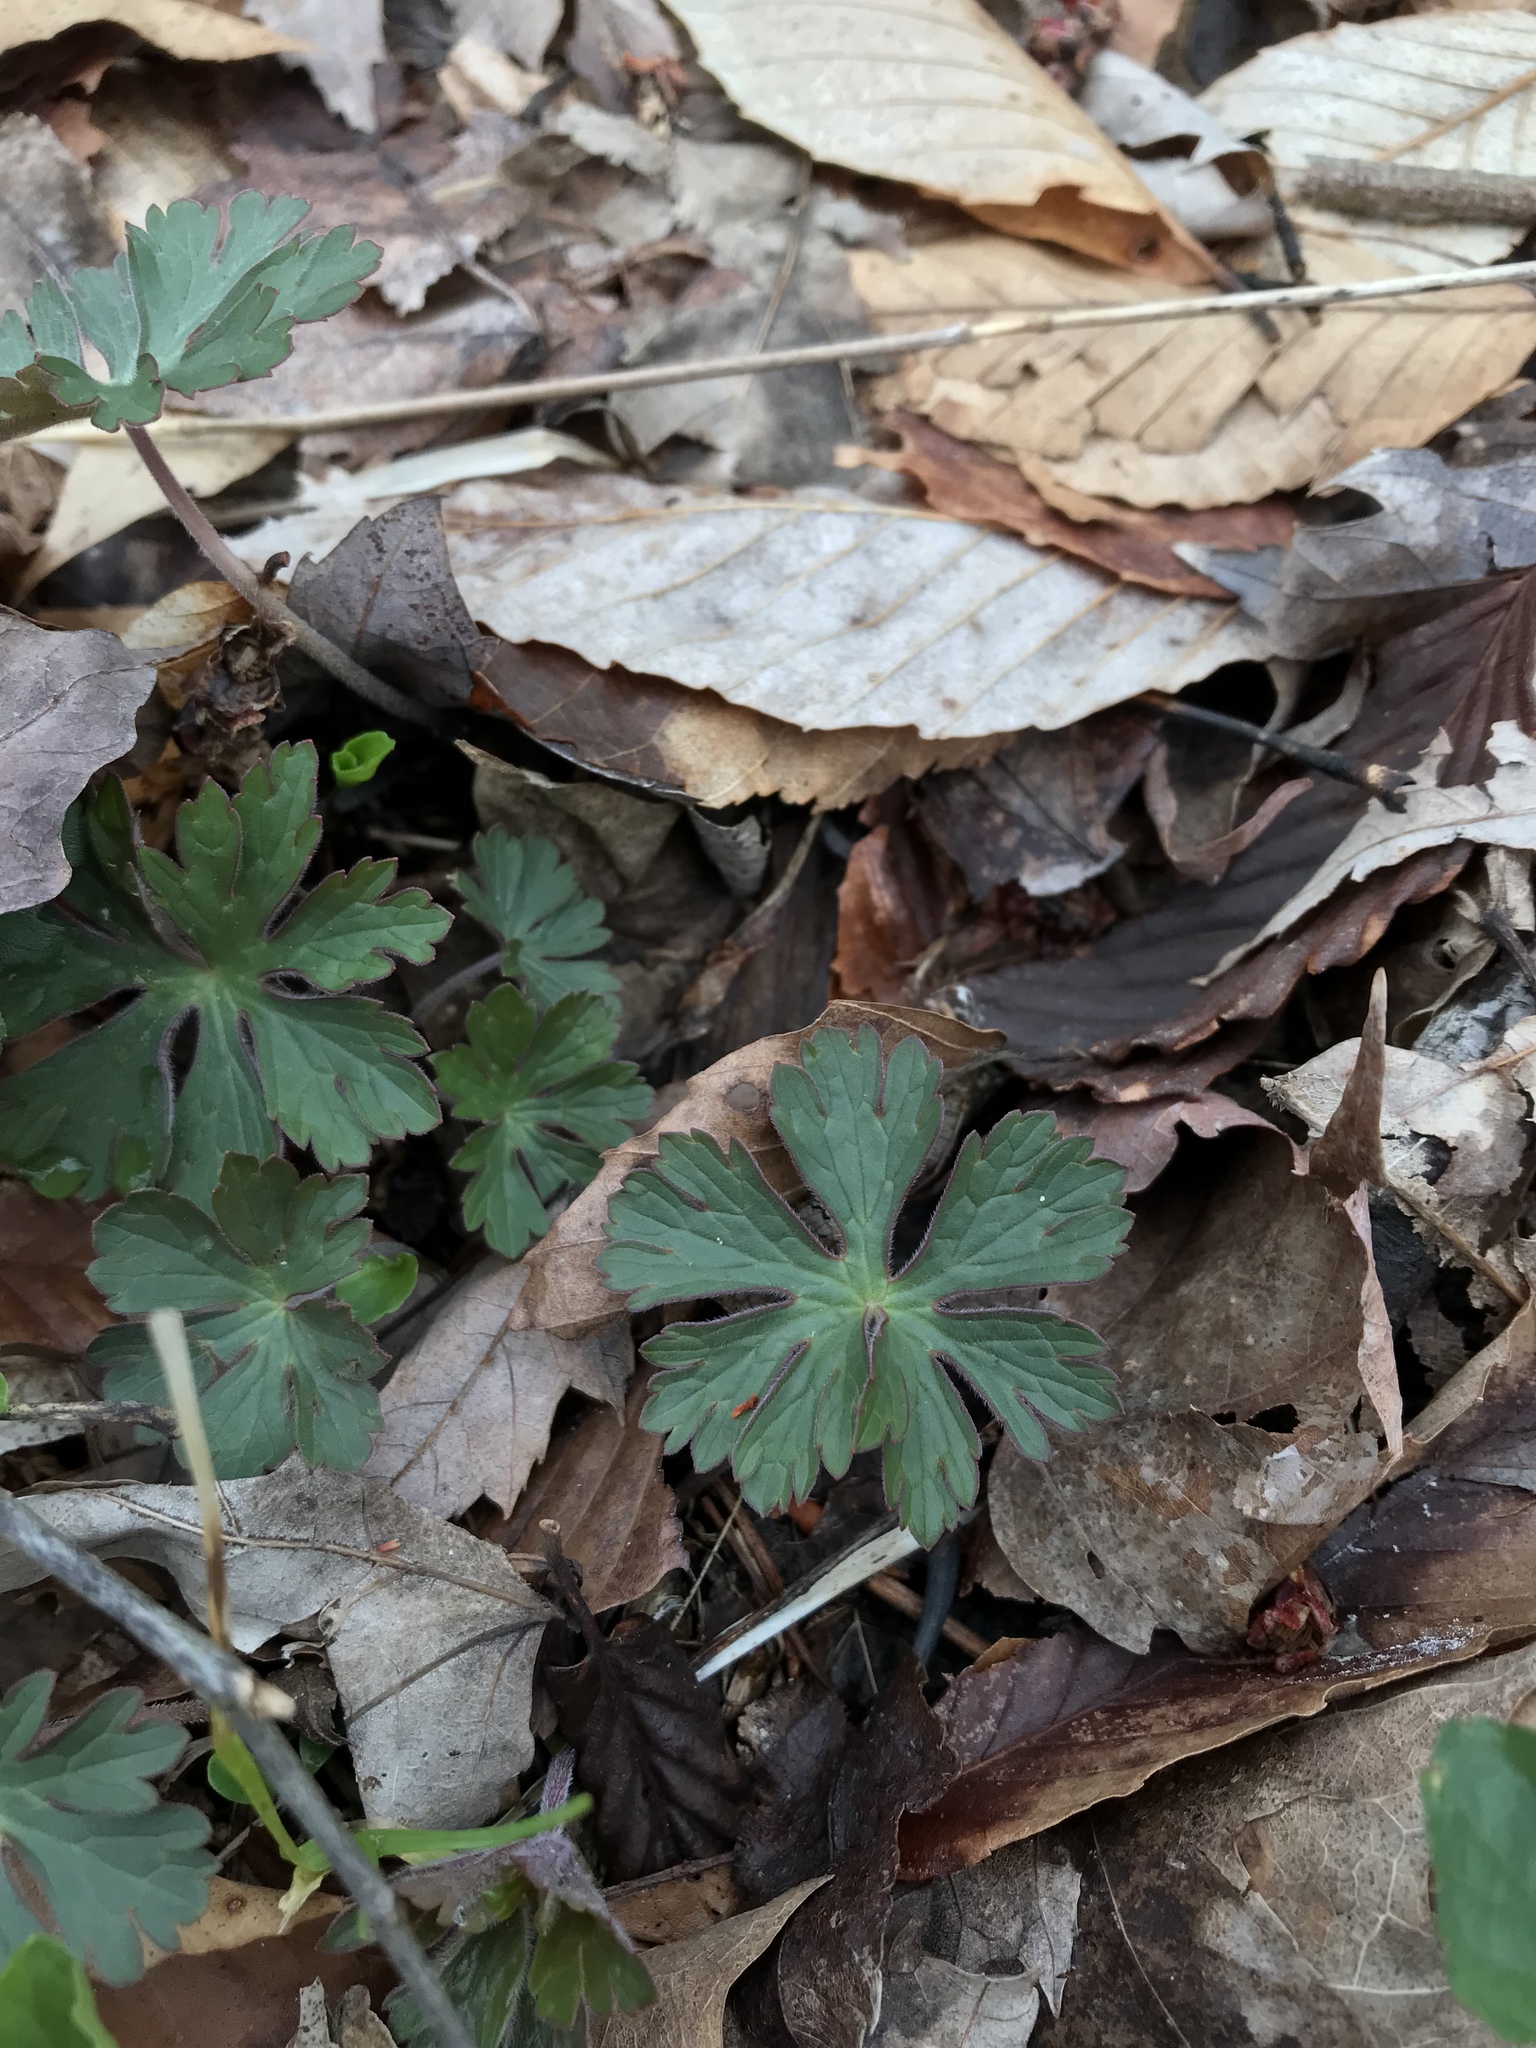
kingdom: Plantae
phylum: Tracheophyta
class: Magnoliopsida
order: Geraniales
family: Geraniaceae
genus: Geranium
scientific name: Geranium maculatum
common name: Spotted geranium
